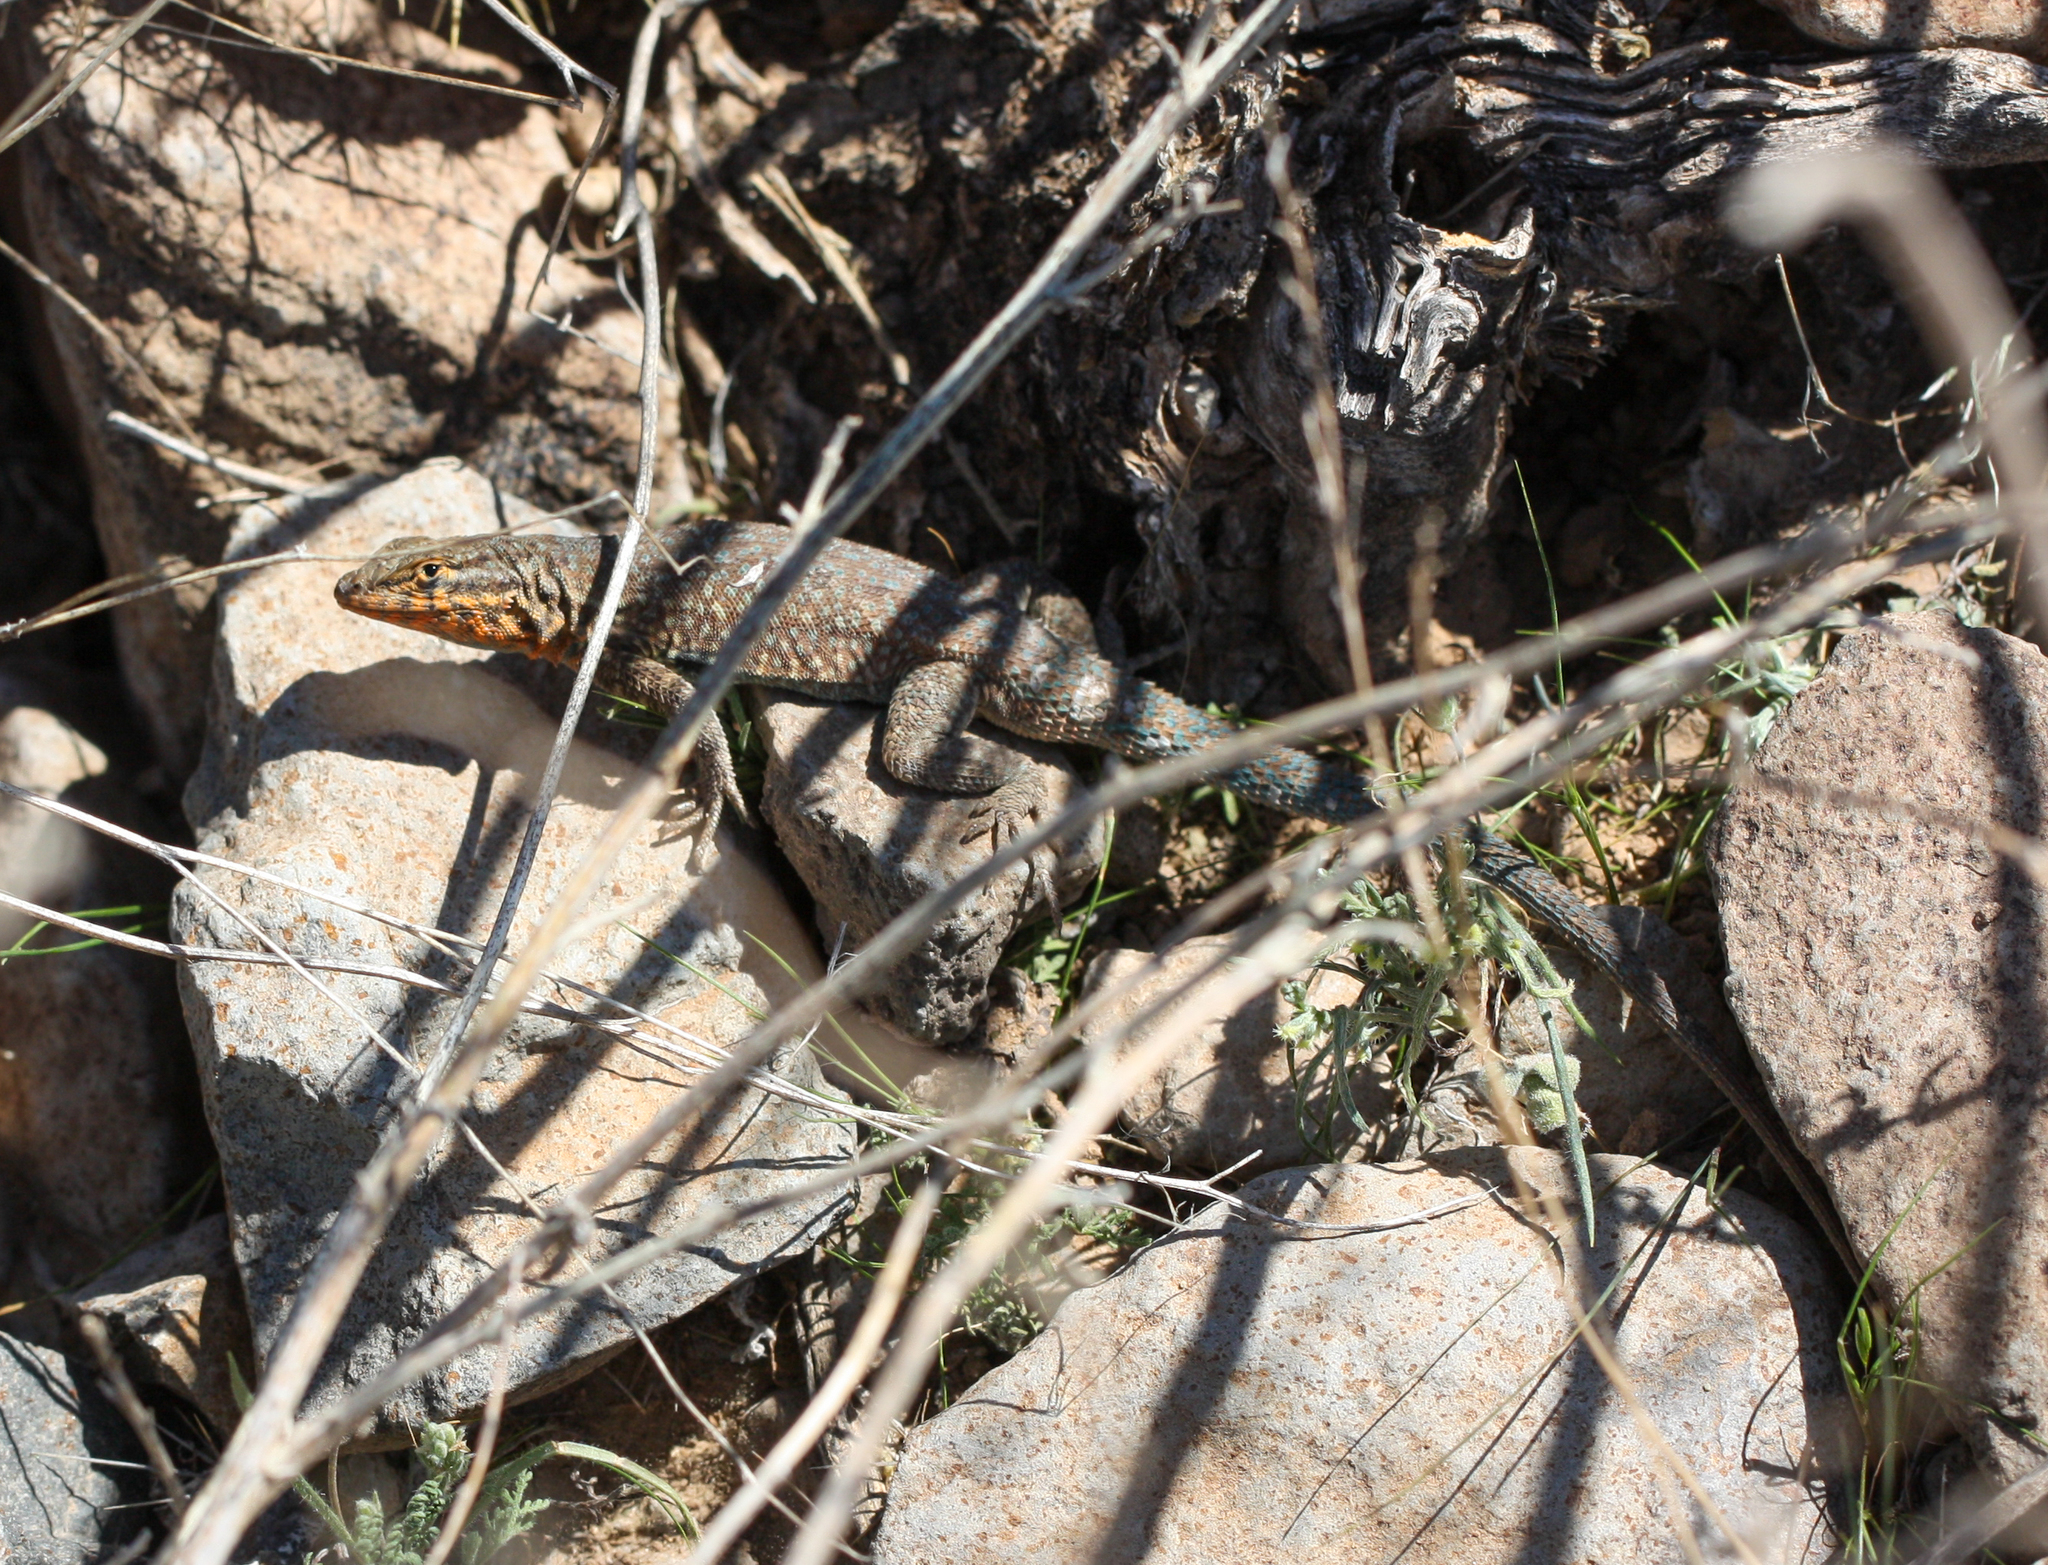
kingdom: Animalia
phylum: Chordata
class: Squamata
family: Phrynosomatidae
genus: Uta
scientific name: Uta stansburiana
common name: Side-blotched lizard
